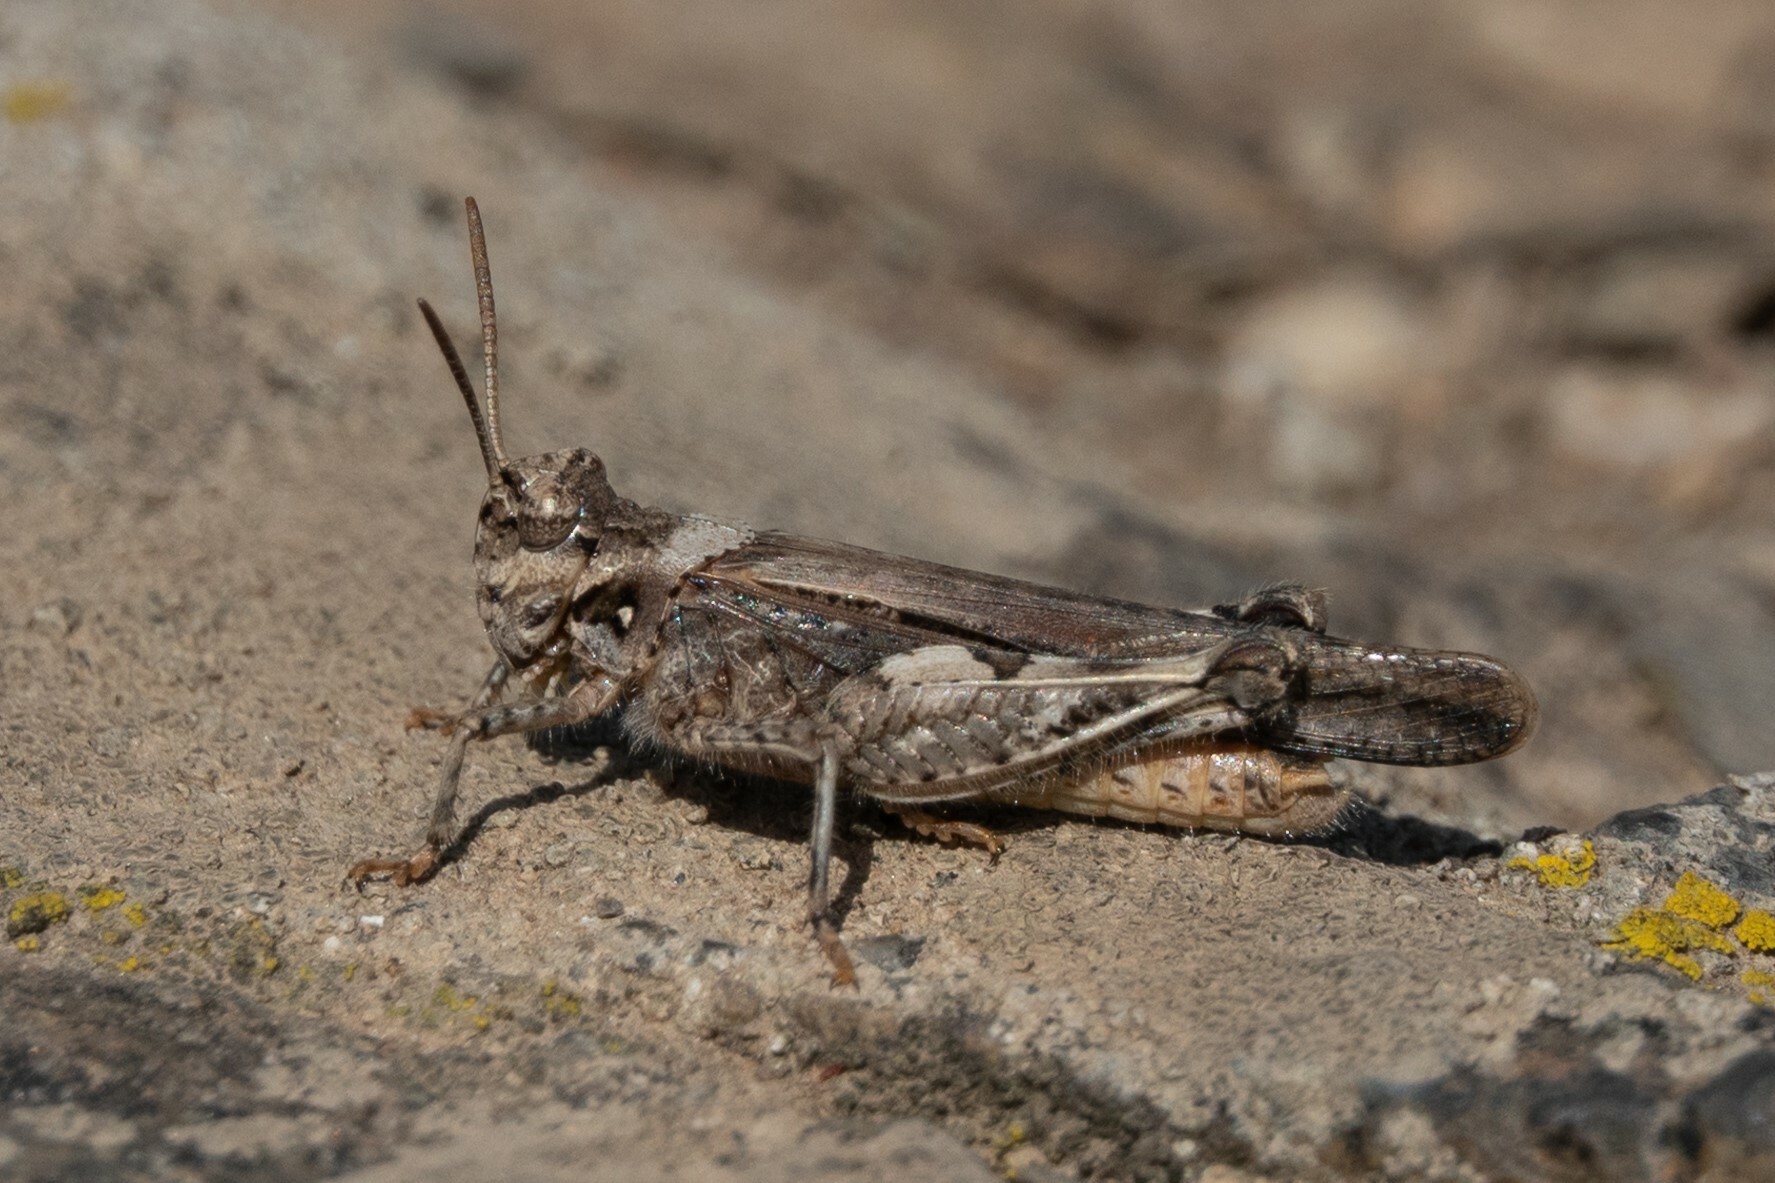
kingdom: Animalia
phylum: Arthropoda
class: Insecta
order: Orthoptera
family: Acrididae
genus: Acrotylus
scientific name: Acrotylus insubricus
